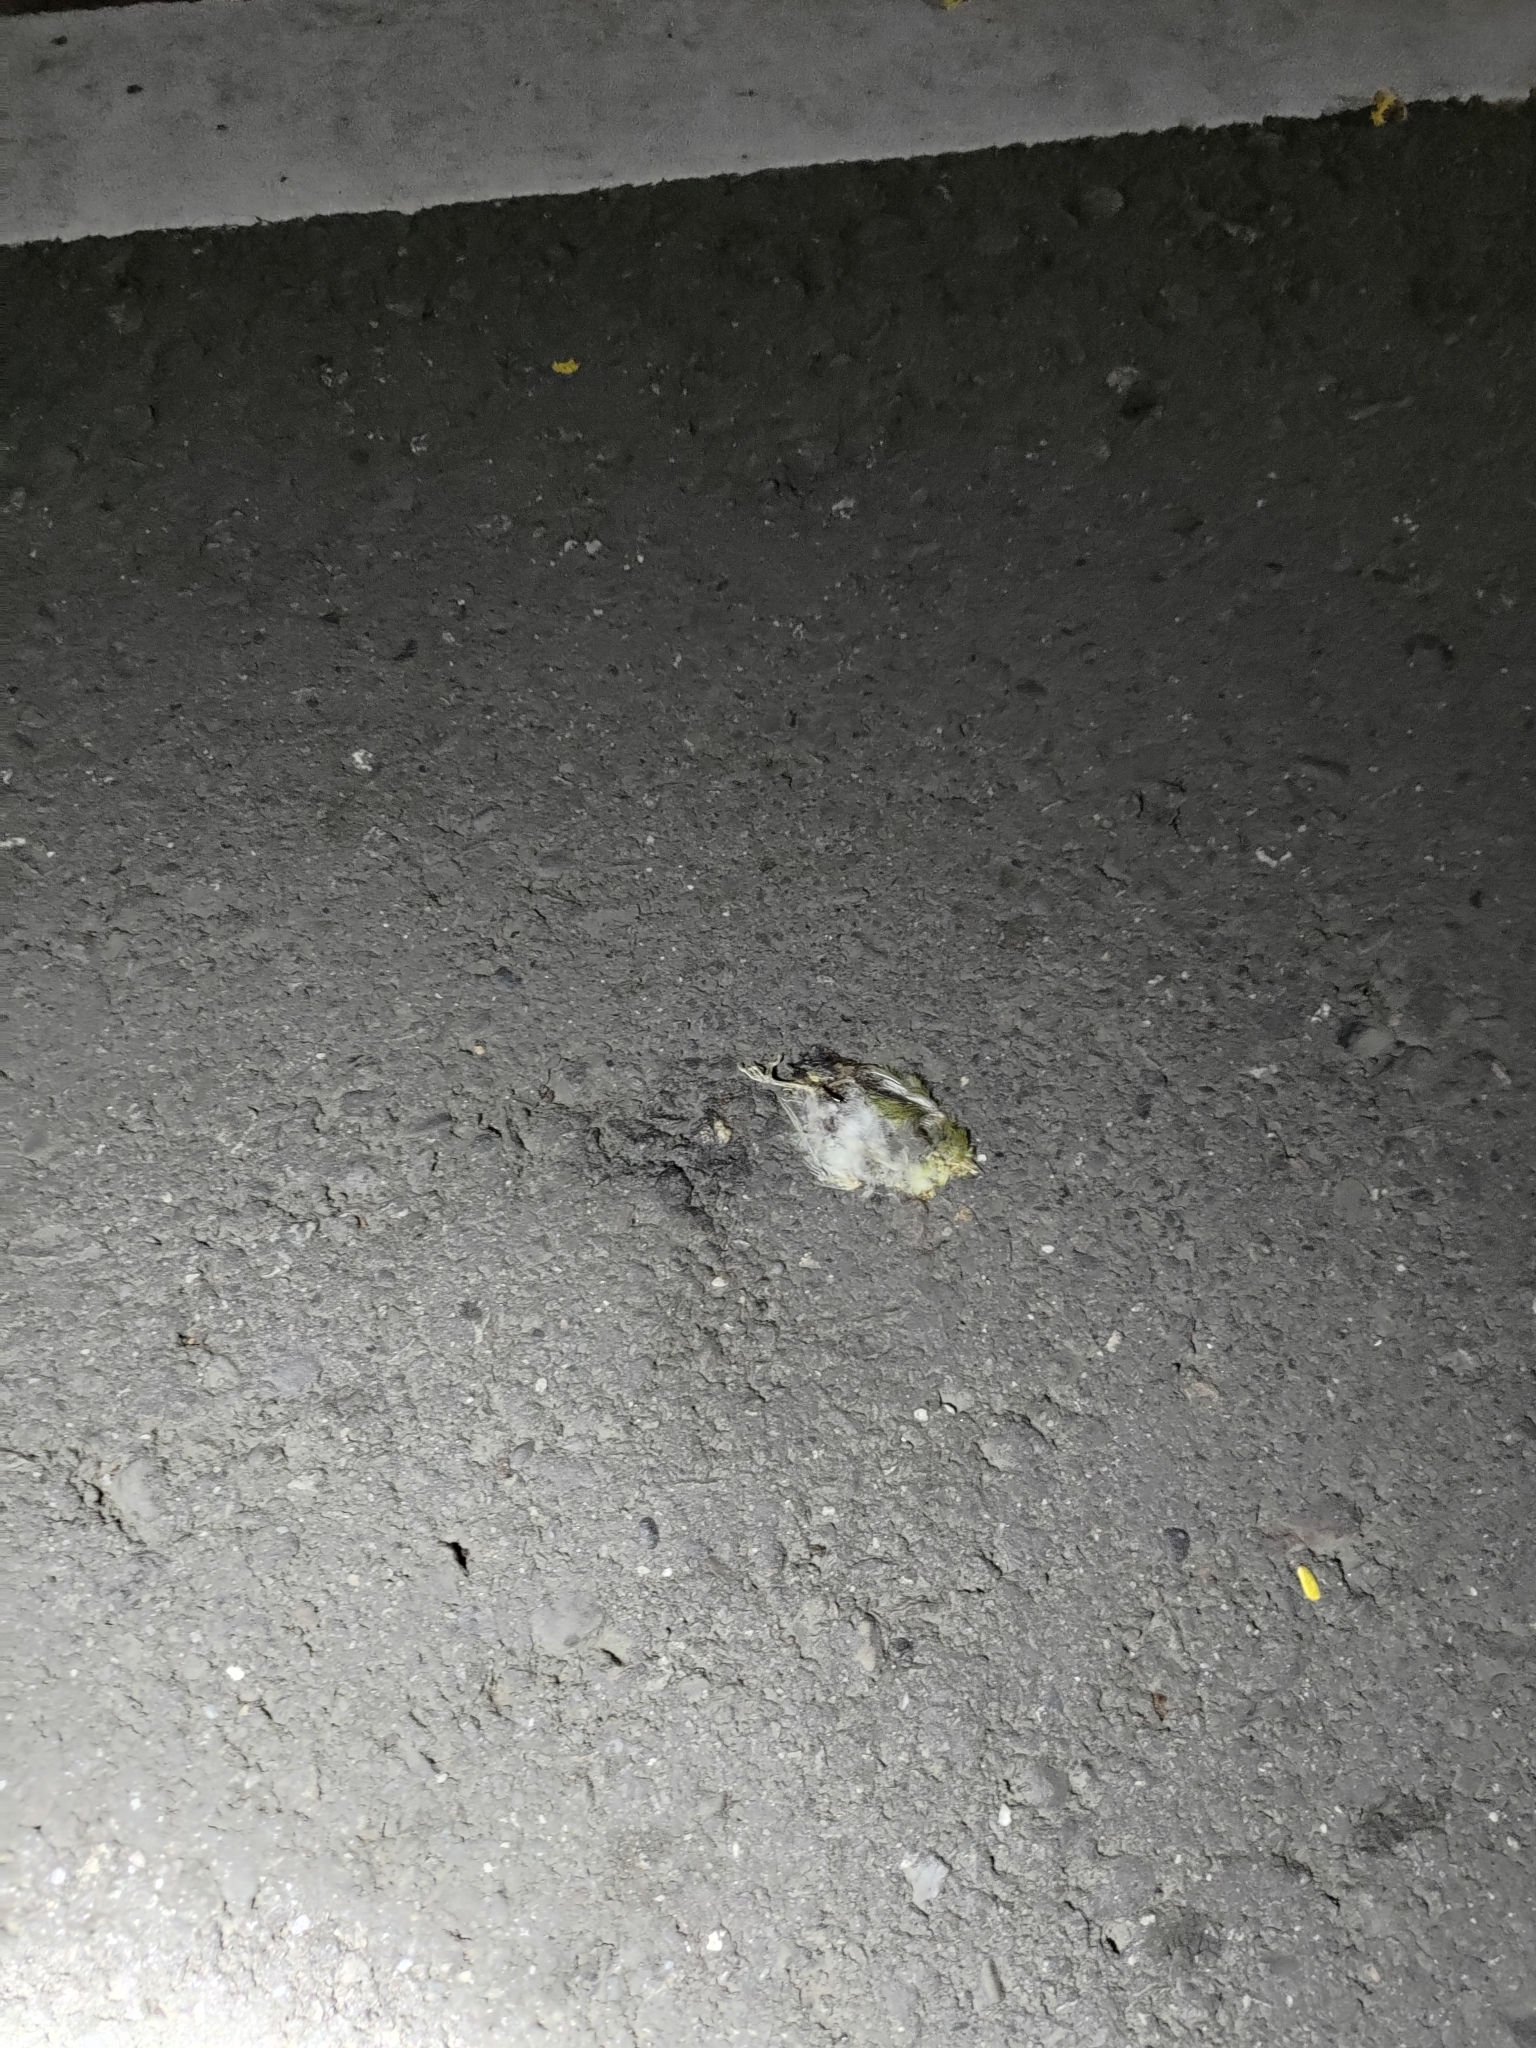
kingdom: Animalia
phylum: Chordata
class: Aves
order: Passeriformes
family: Zosteropidae
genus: Zosterops
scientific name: Zosterops simplex
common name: Swinhoe's white-eye
